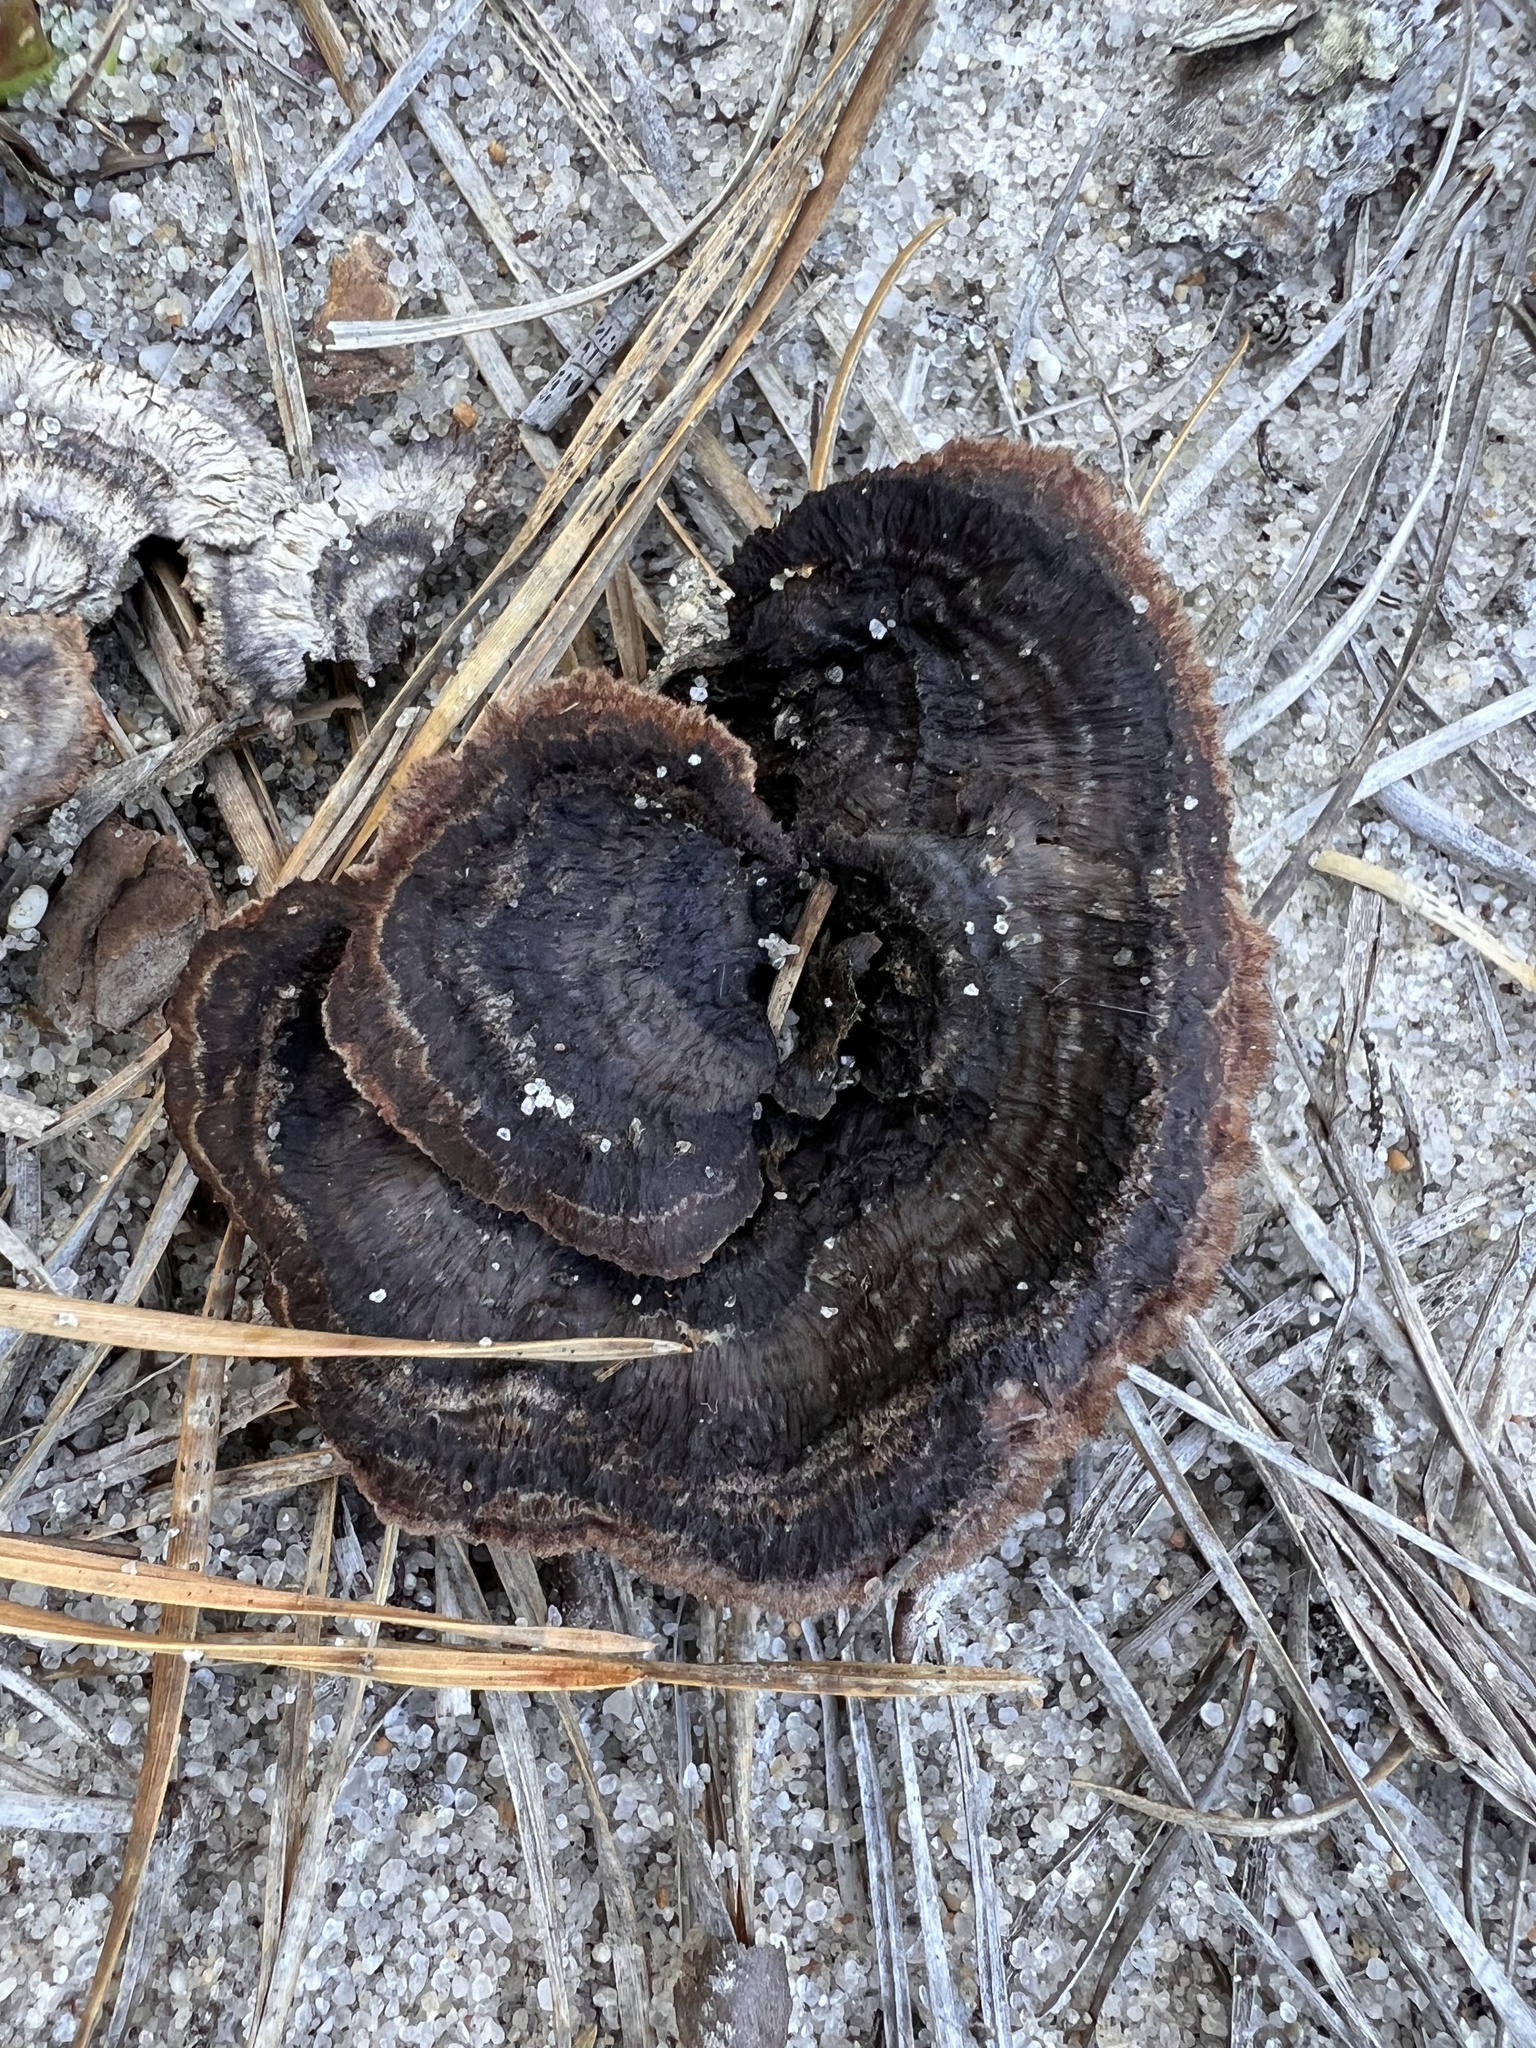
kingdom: Fungi
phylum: Basidiomycota
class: Agaricomycetes
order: Thelephorales
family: Thelephoraceae
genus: Thelephora
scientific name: Thelephora terrestris
